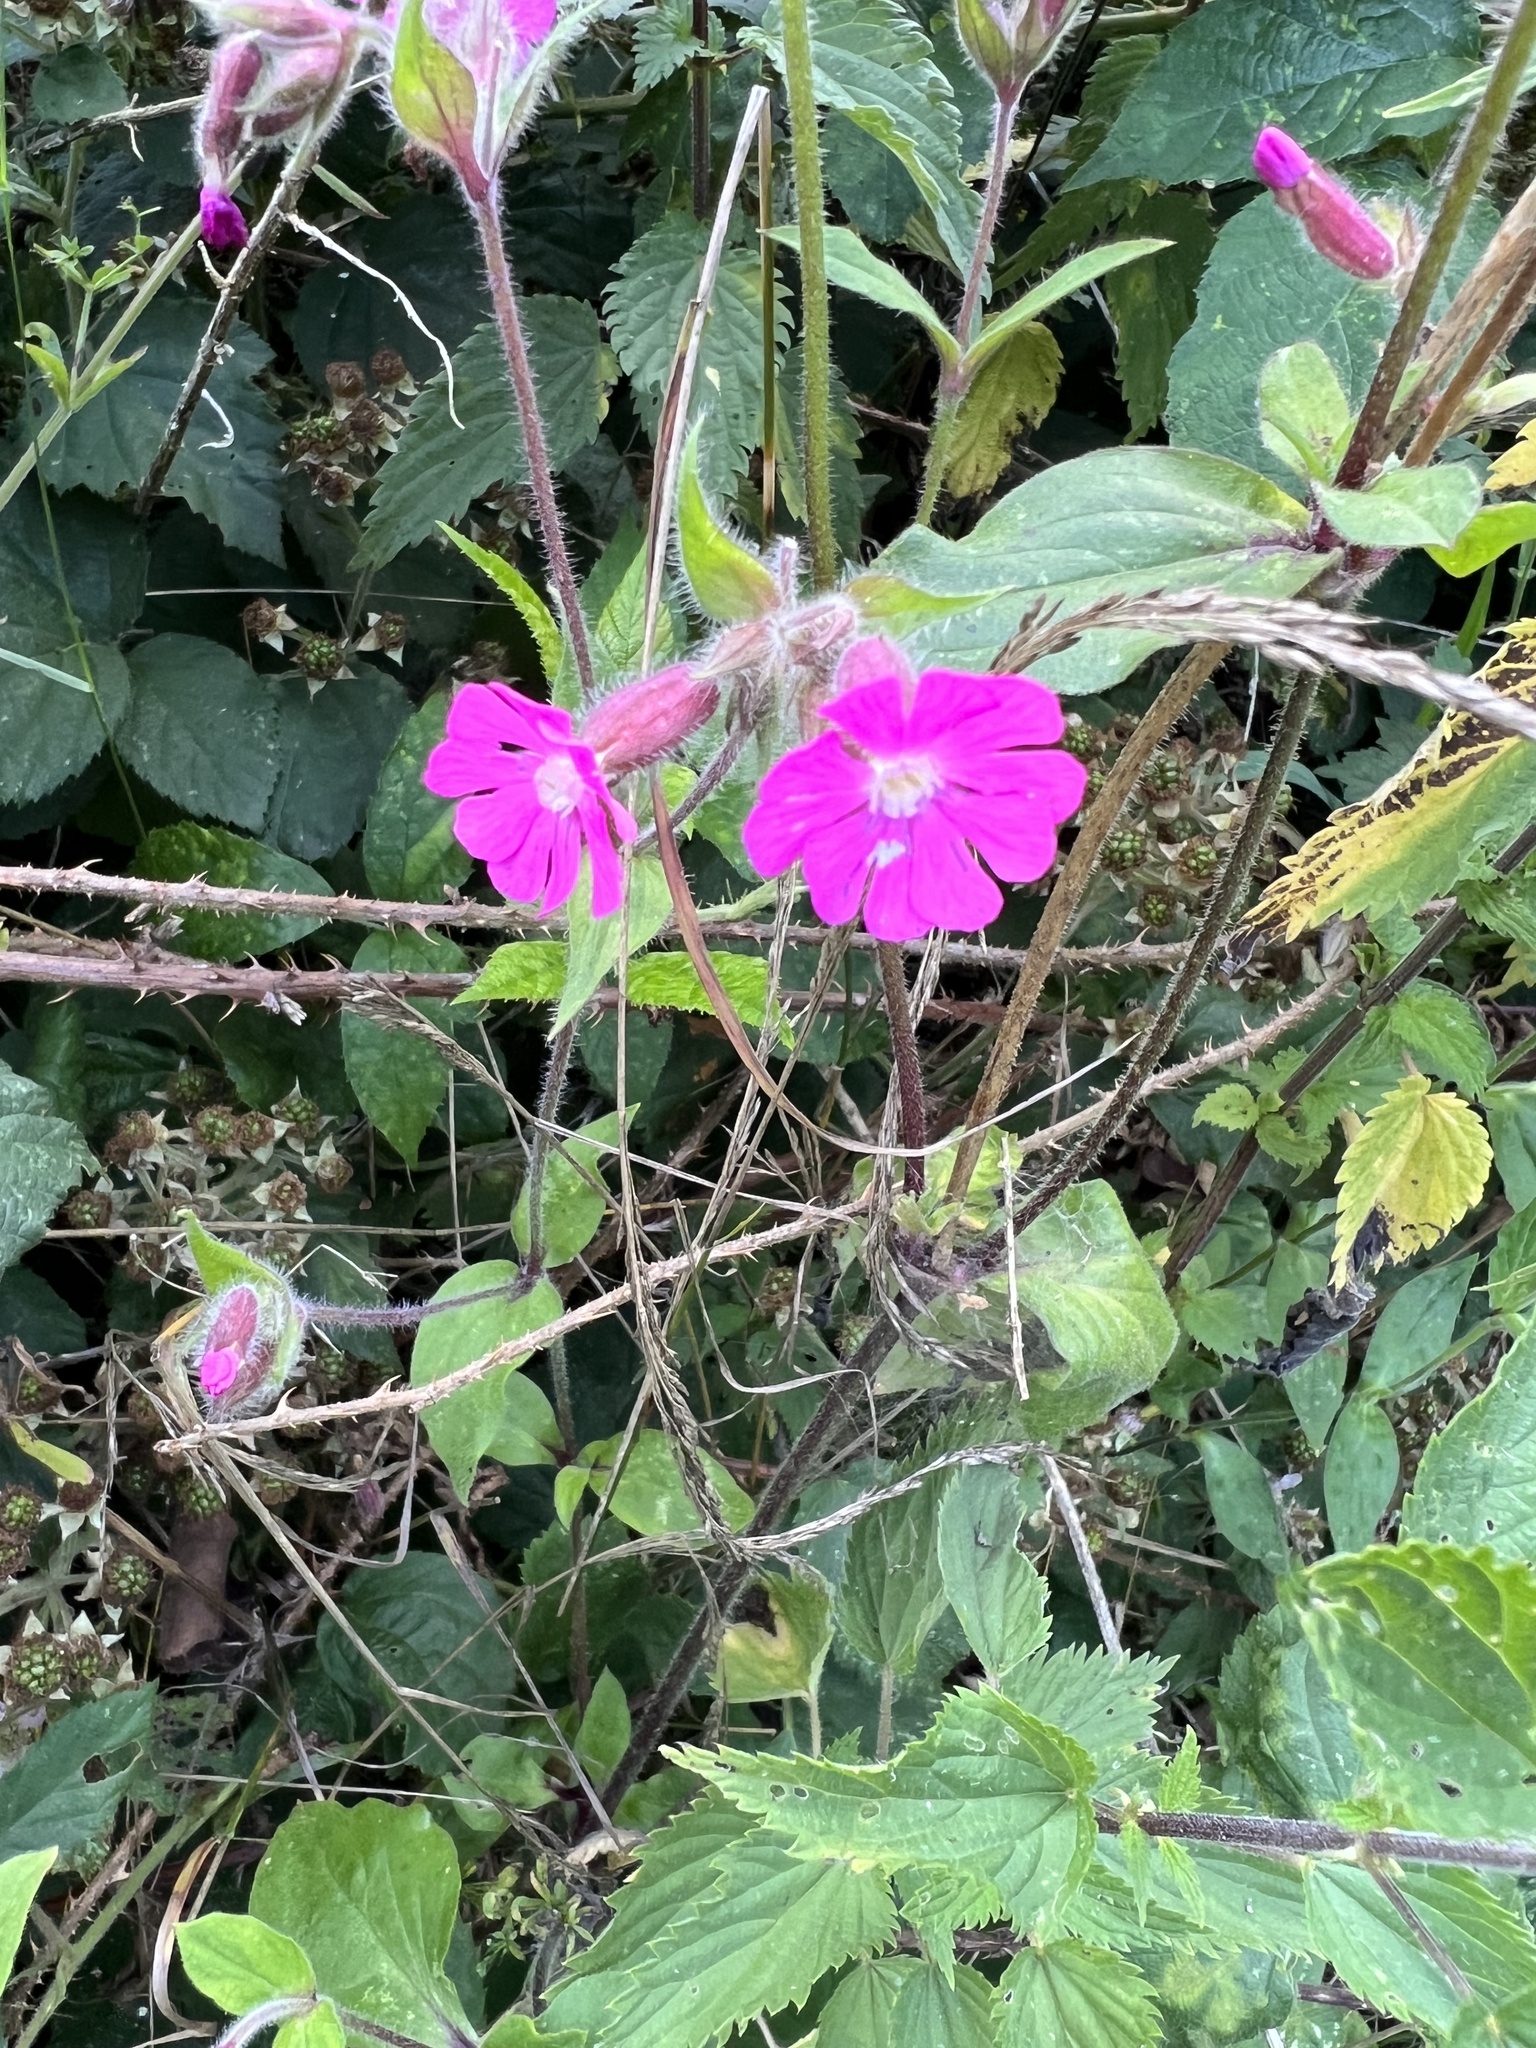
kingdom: Plantae
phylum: Tracheophyta
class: Magnoliopsida
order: Caryophyllales
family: Caryophyllaceae
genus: Silene
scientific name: Silene dioica
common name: Red campion
